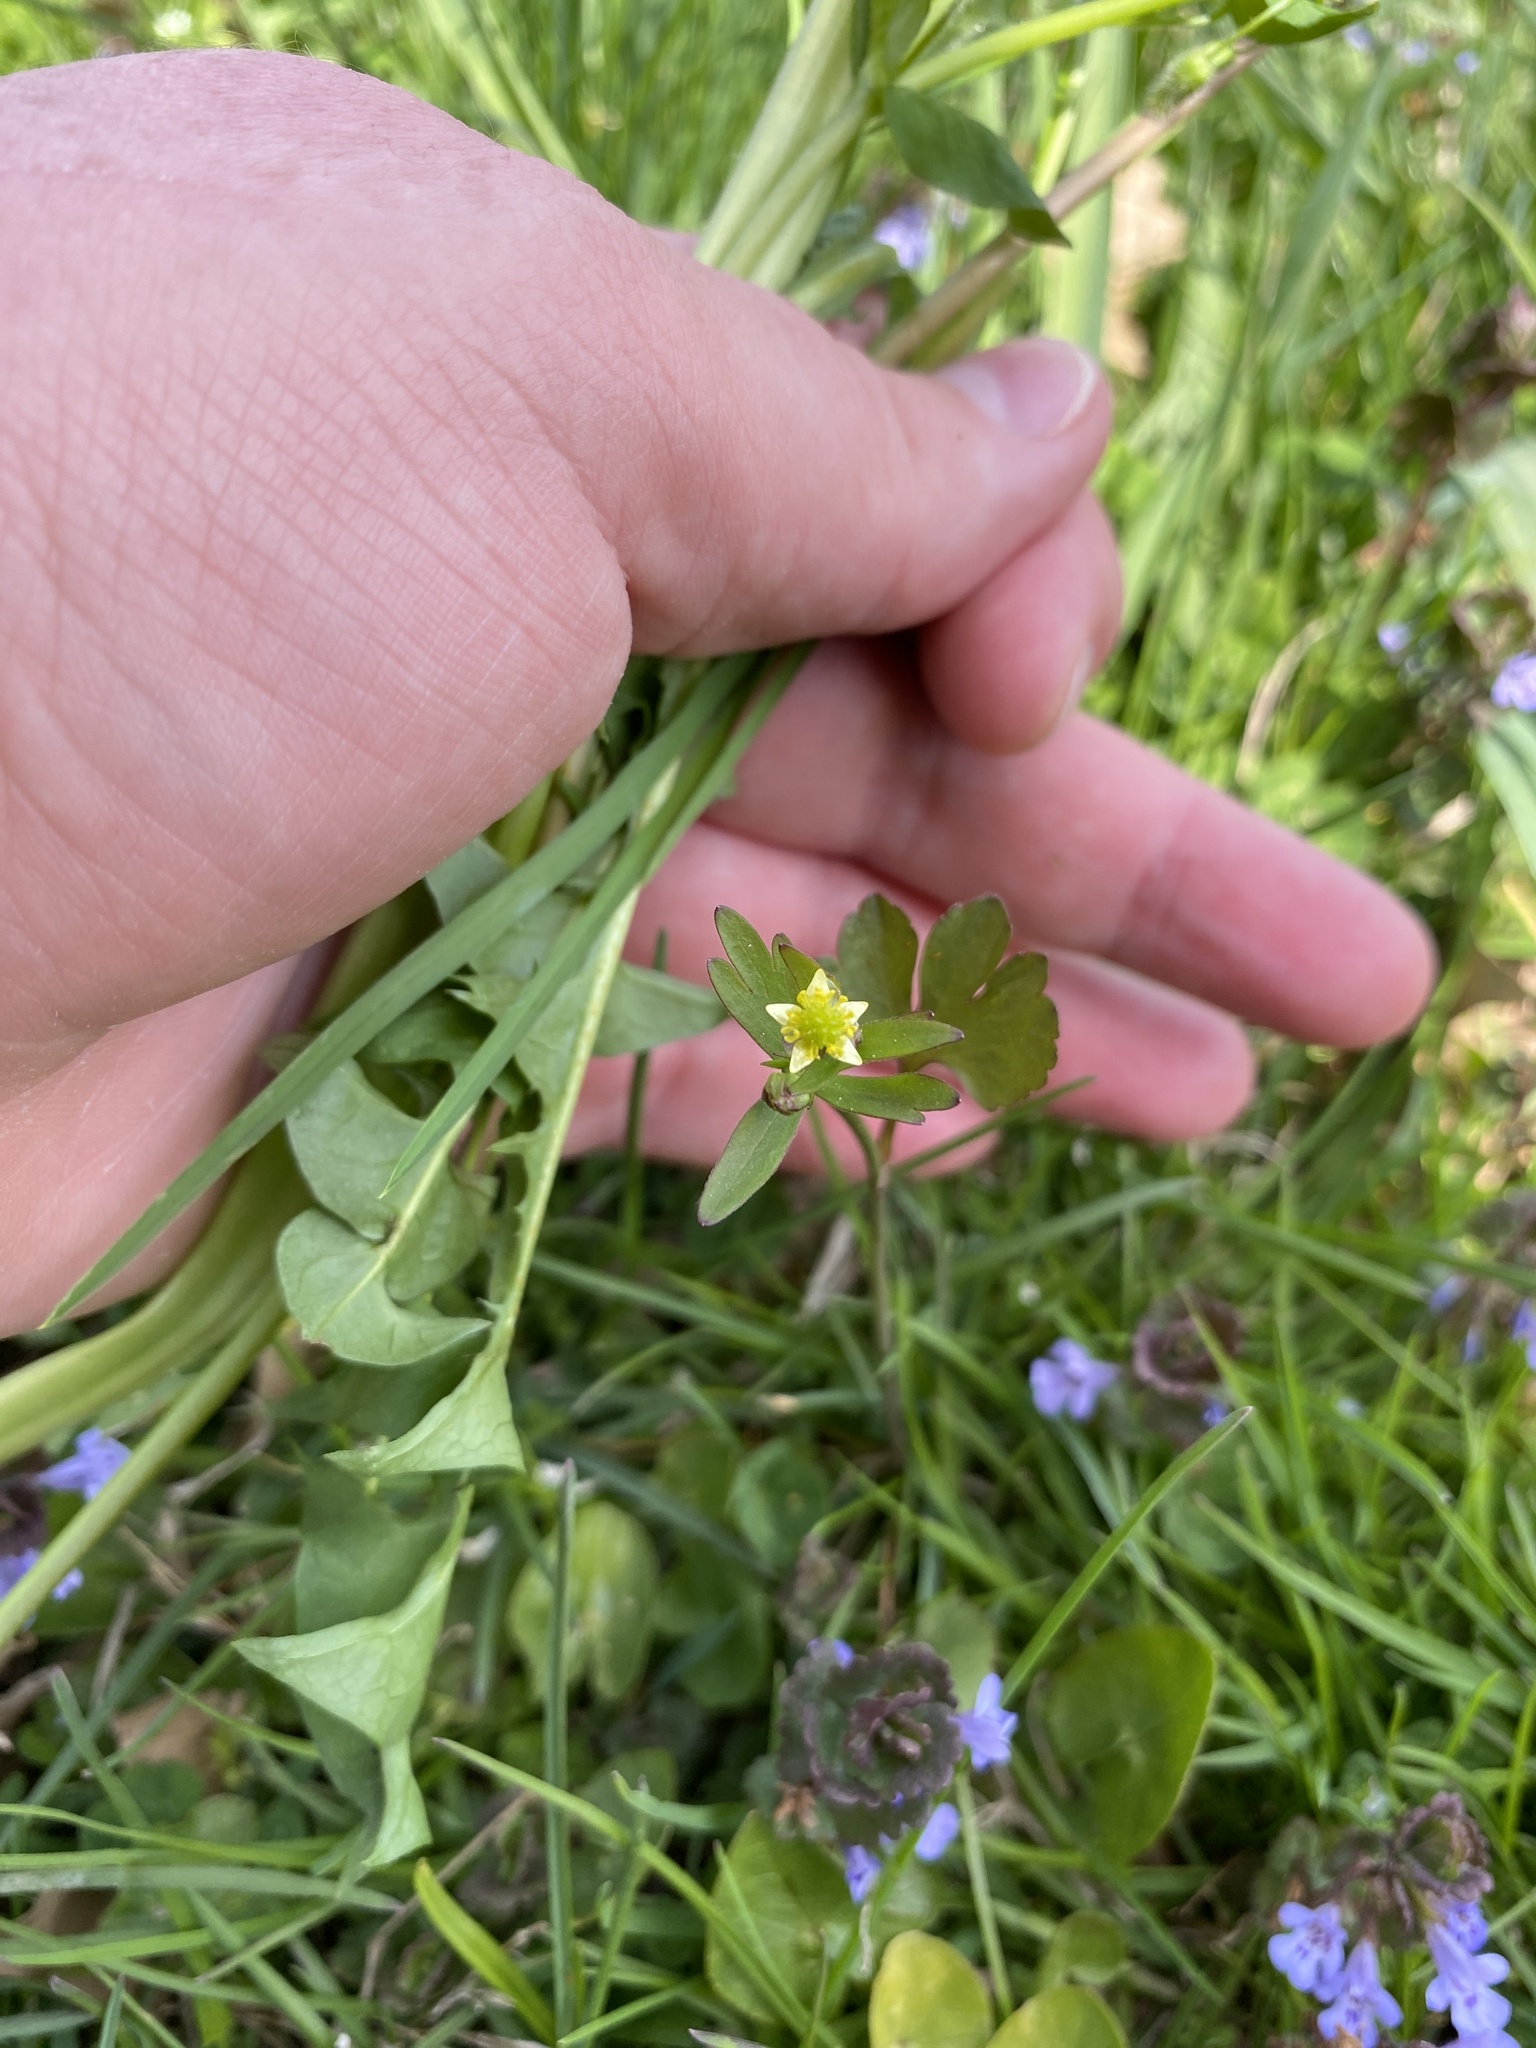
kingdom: Plantae
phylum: Tracheophyta
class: Magnoliopsida
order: Ranunculales
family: Ranunculaceae
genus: Ranunculus
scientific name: Ranunculus abortivus
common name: Early wood buttercup
